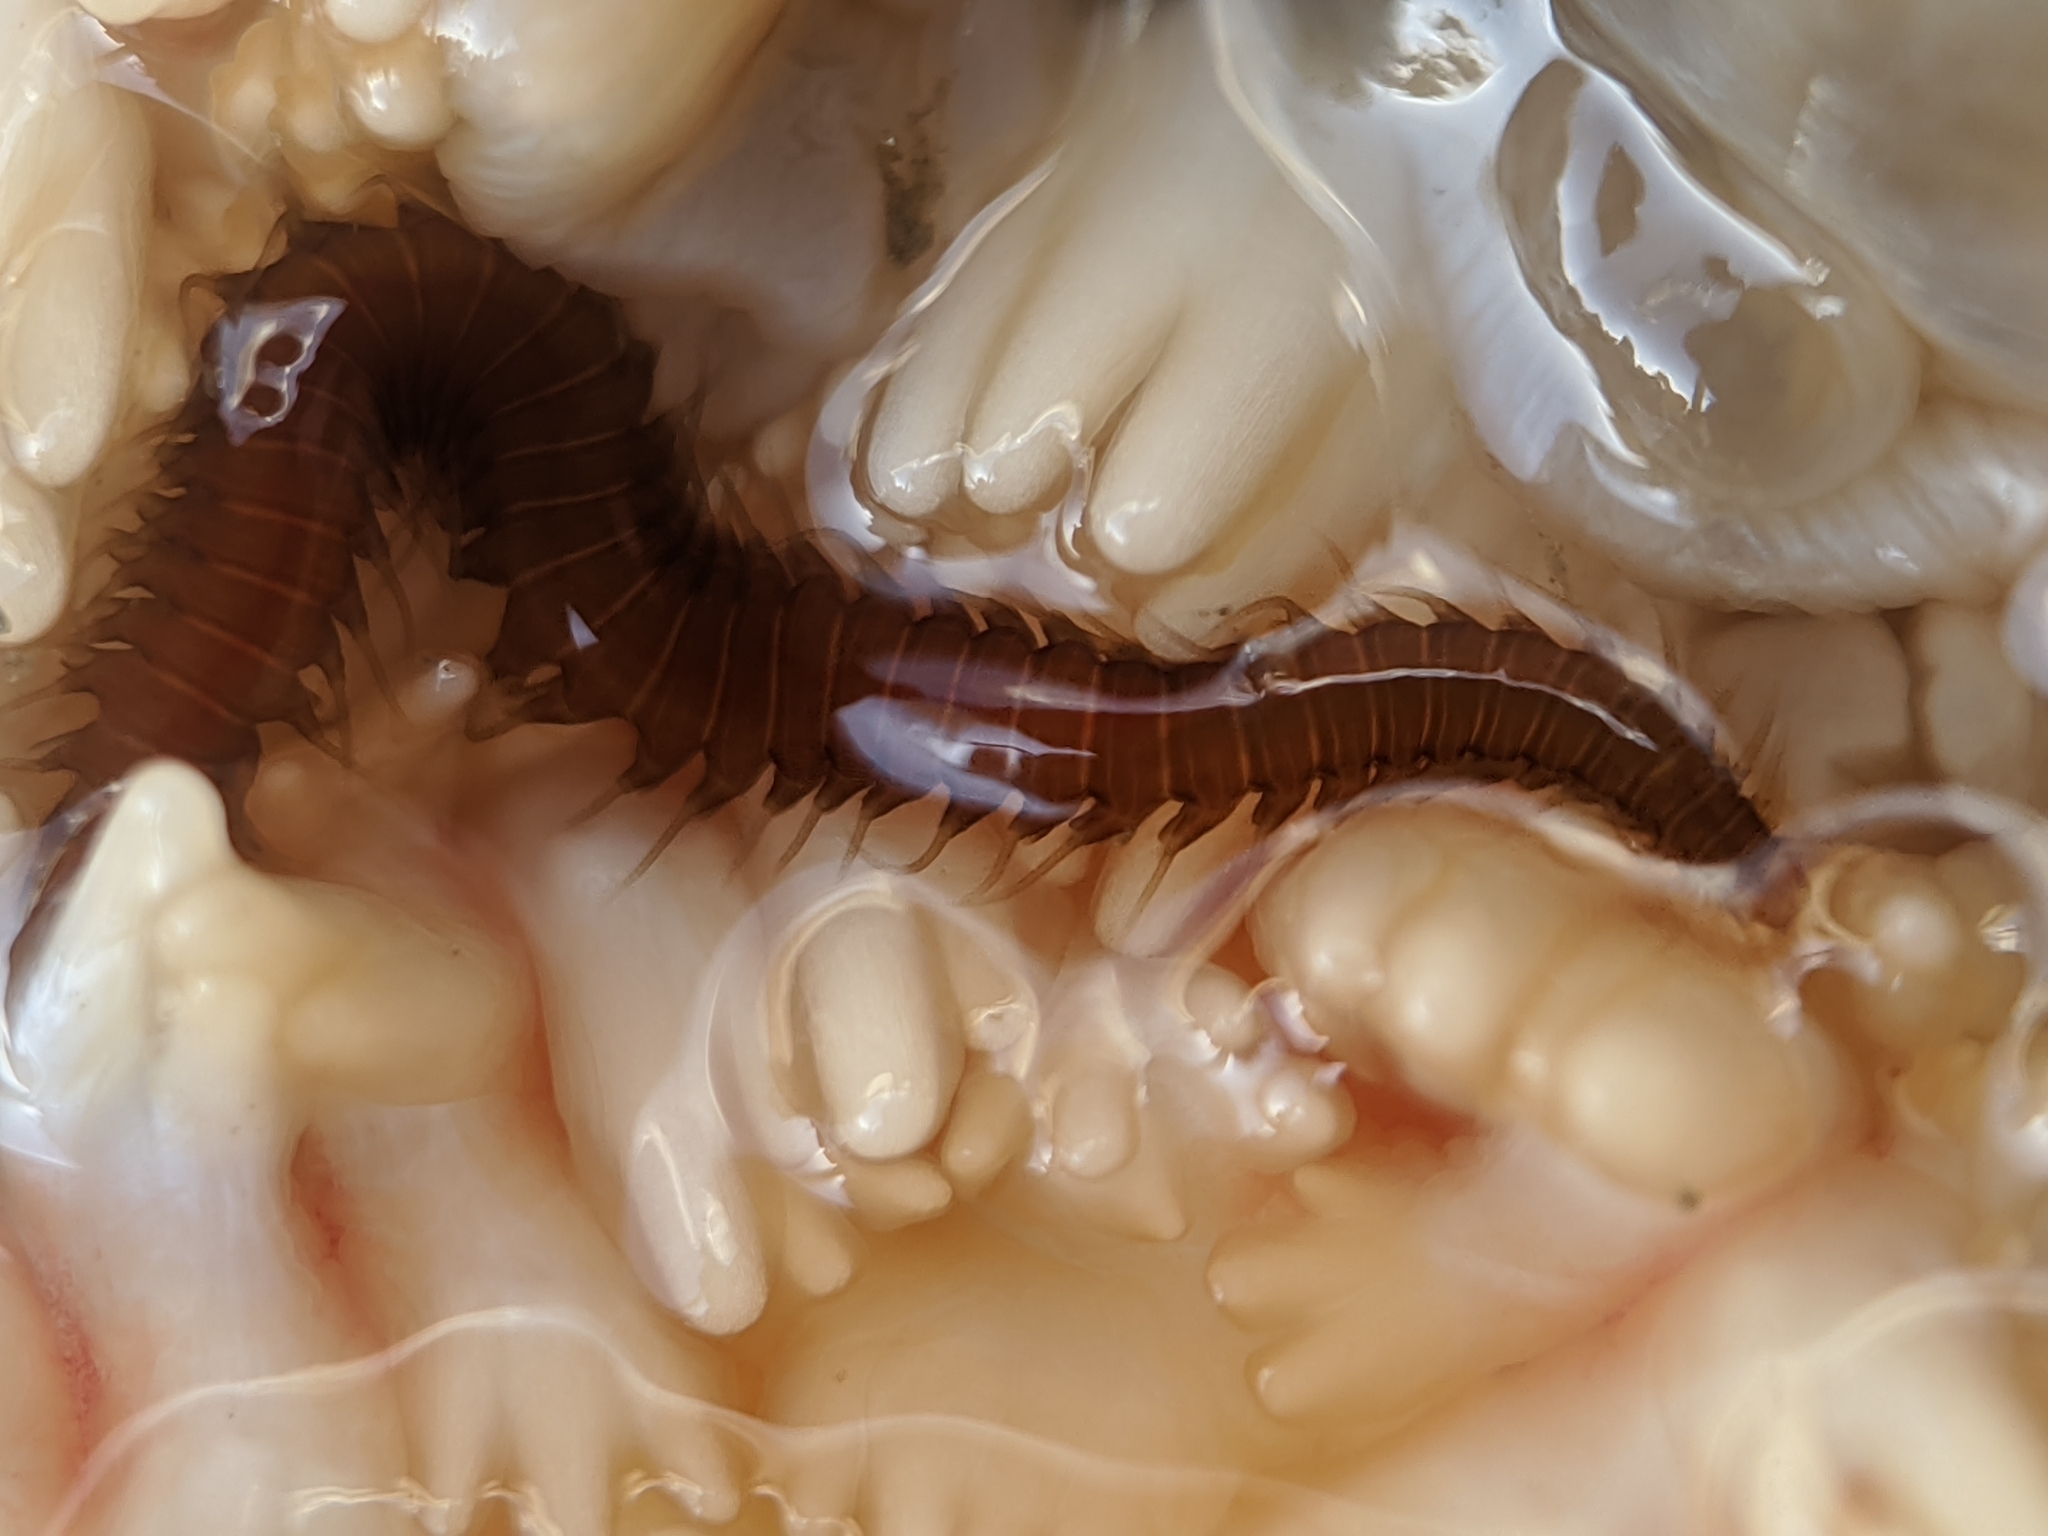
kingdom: Animalia
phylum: Annelida
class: Polychaeta
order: Phyllodocida
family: Hesionidae
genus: Oxydromus
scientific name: Oxydromus pugettensis
